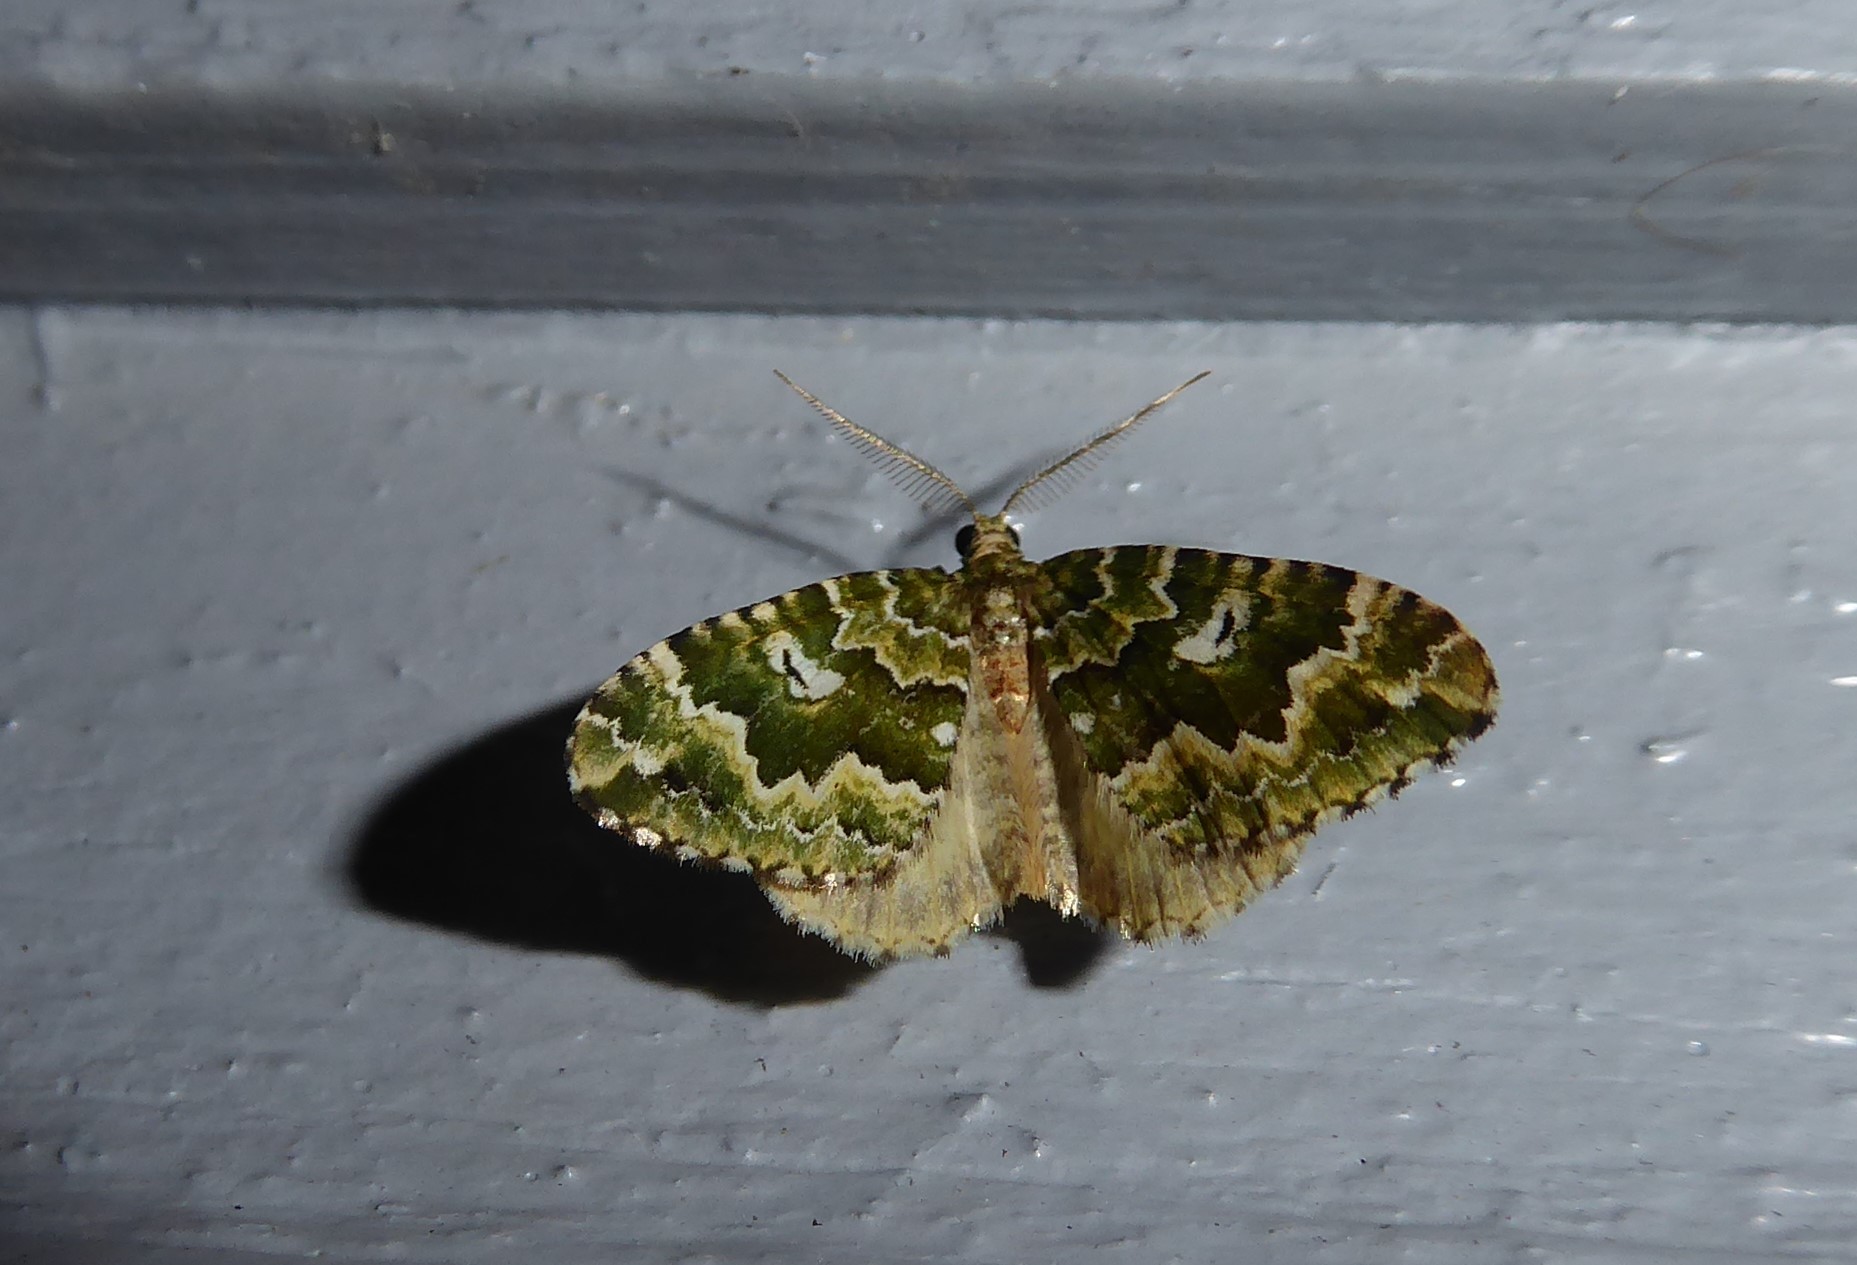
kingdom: Animalia
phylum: Arthropoda
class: Insecta
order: Lepidoptera
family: Geometridae
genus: Asaphodes
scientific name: Asaphodes beata
